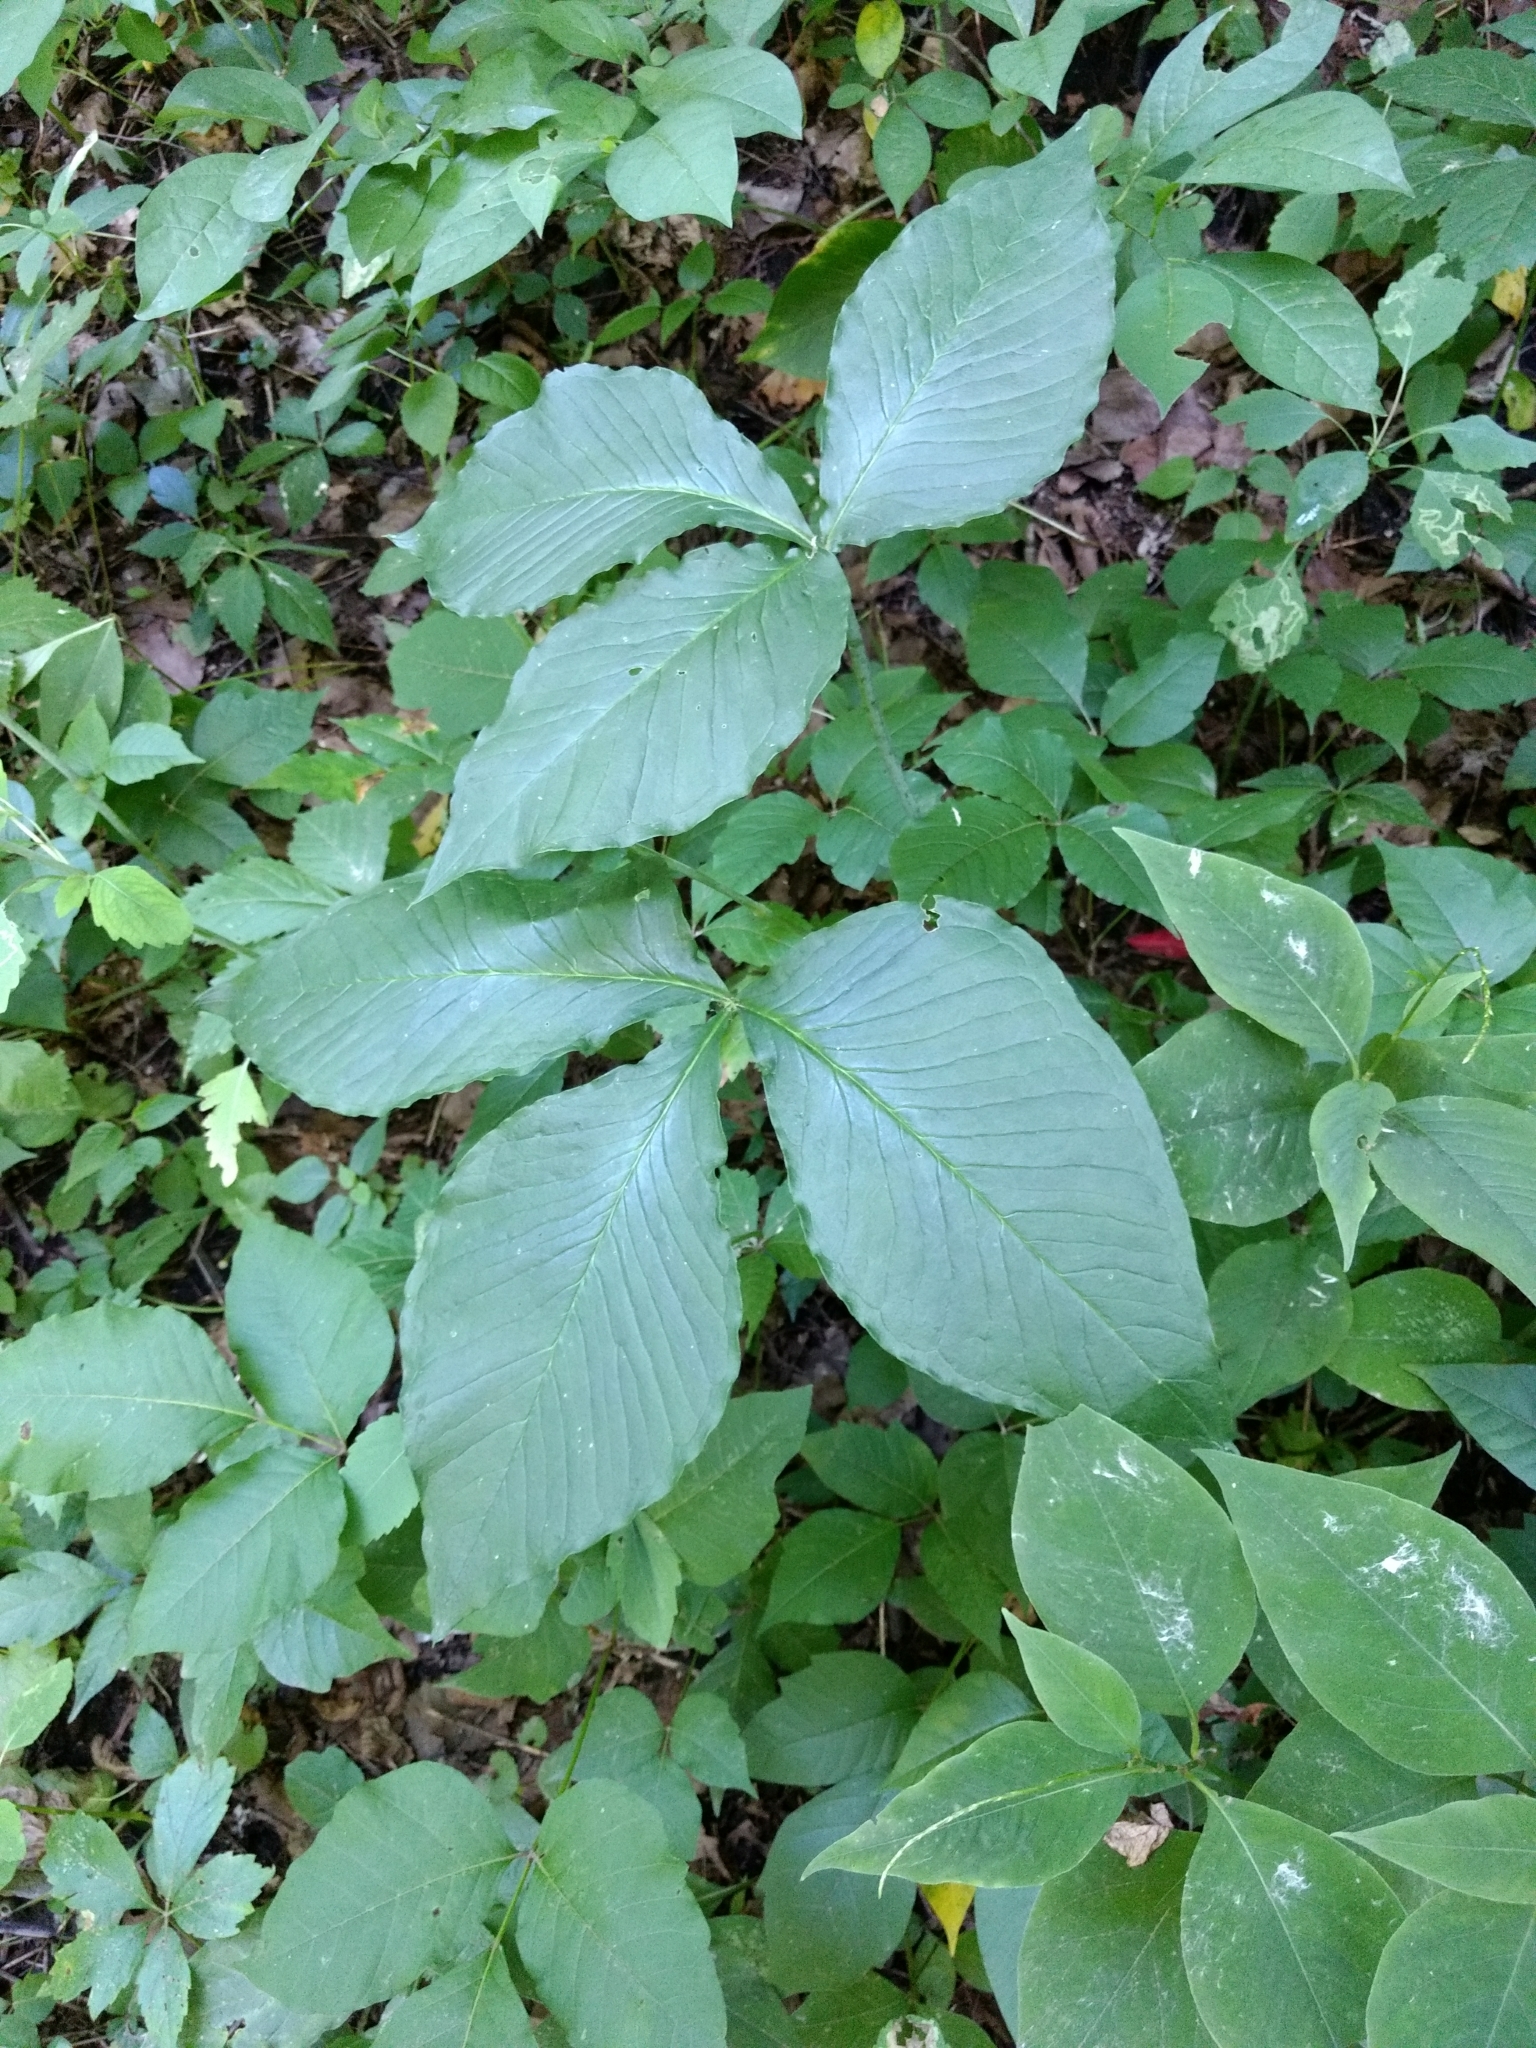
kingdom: Plantae
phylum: Tracheophyta
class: Liliopsida
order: Alismatales
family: Araceae
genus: Arisaema
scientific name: Arisaema triphyllum
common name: Jack-in-the-pulpit
